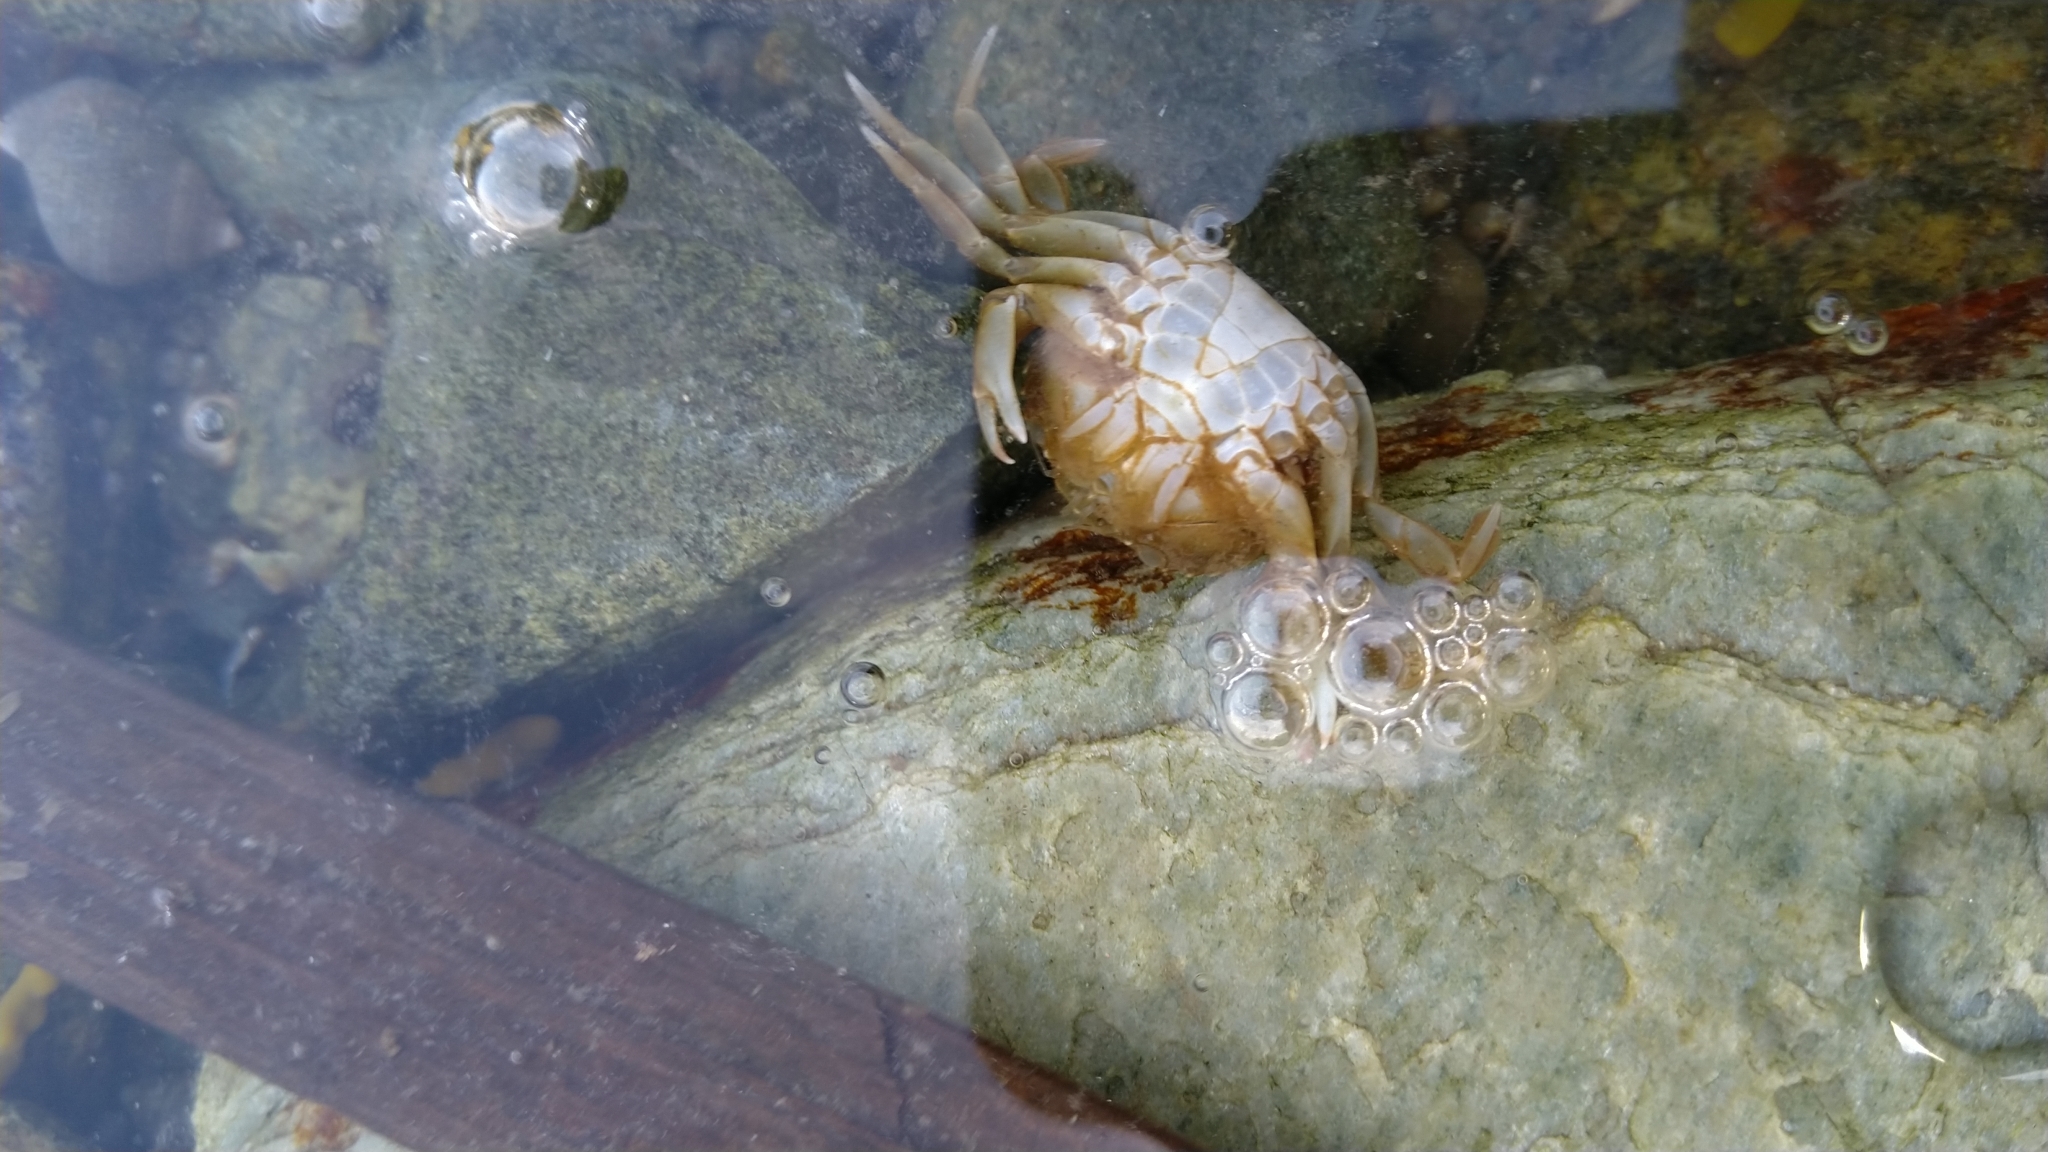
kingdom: Animalia
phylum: Arthropoda
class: Malacostraca
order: Decapoda
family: Carcinidae
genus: Carcinus
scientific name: Carcinus maenas
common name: European green crab
